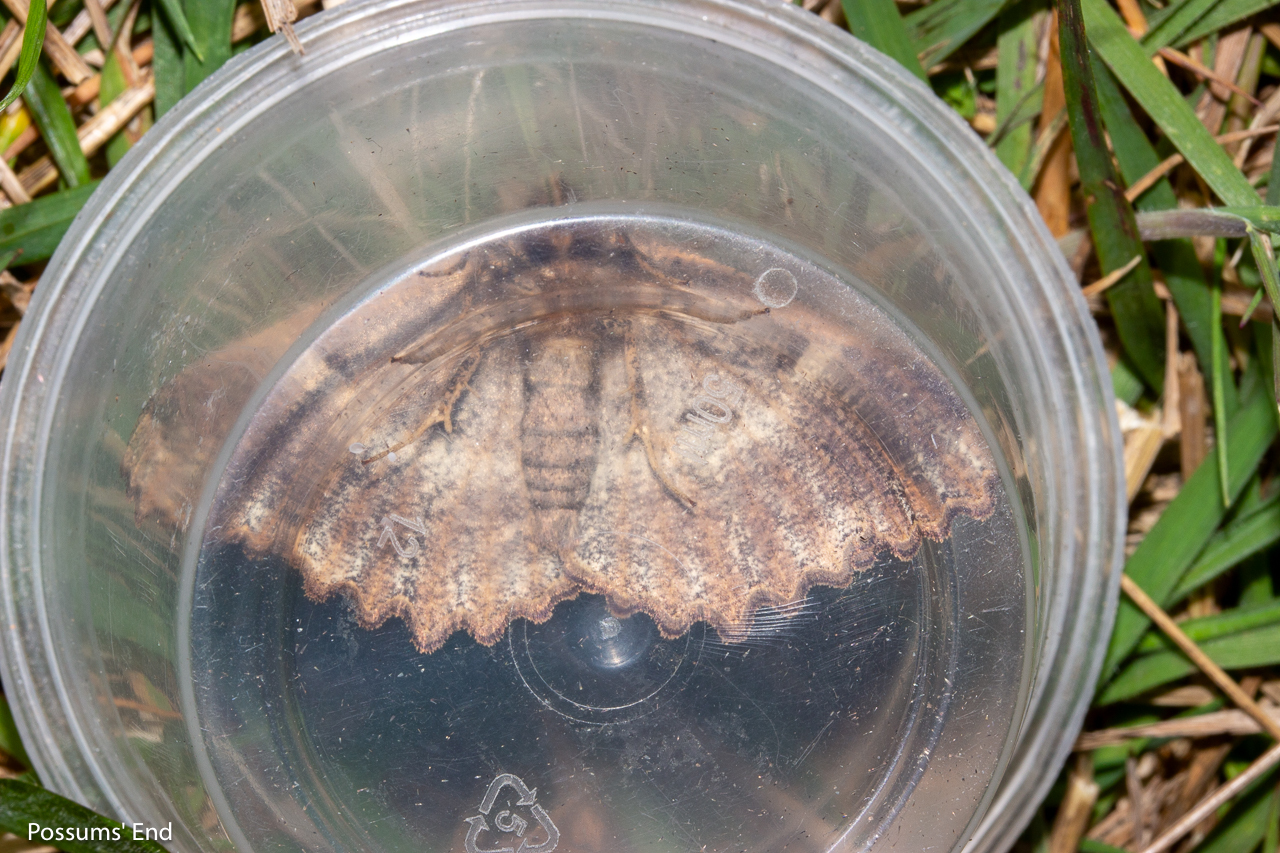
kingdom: Animalia
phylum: Arthropoda
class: Insecta
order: Lepidoptera
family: Geometridae
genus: Gellonia
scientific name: Gellonia dejectaria
